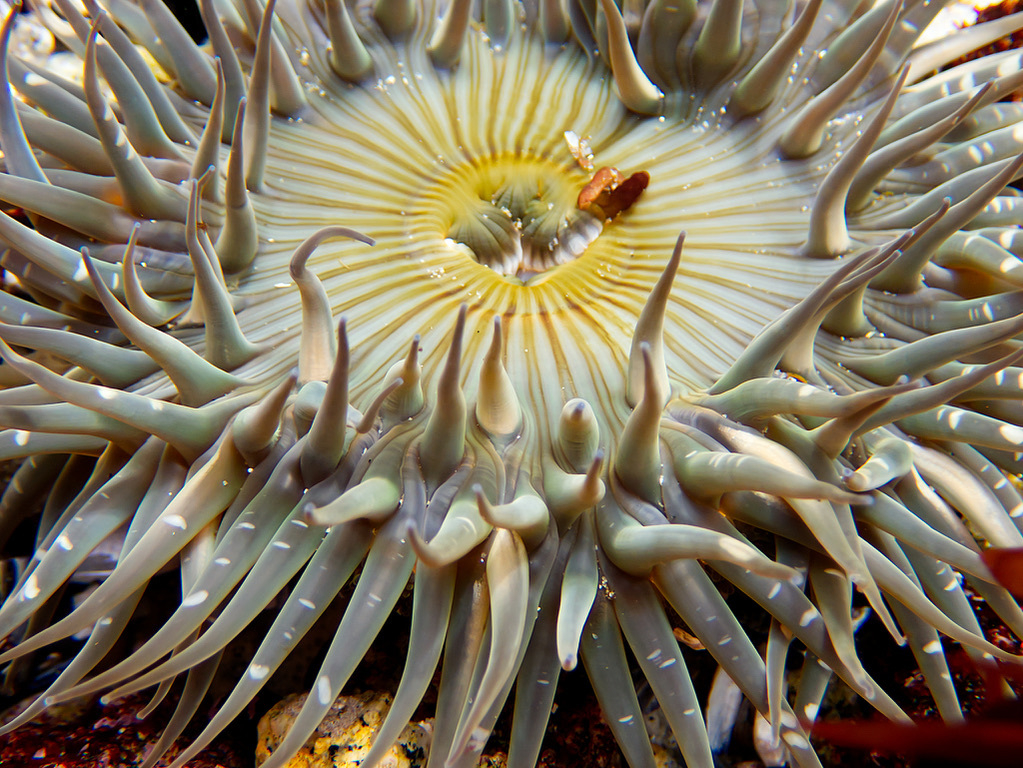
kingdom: Animalia
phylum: Cnidaria
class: Anthozoa
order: Actiniaria
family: Actiniidae
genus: Anthopleura
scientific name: Anthopleura sola
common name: Sun anemone
